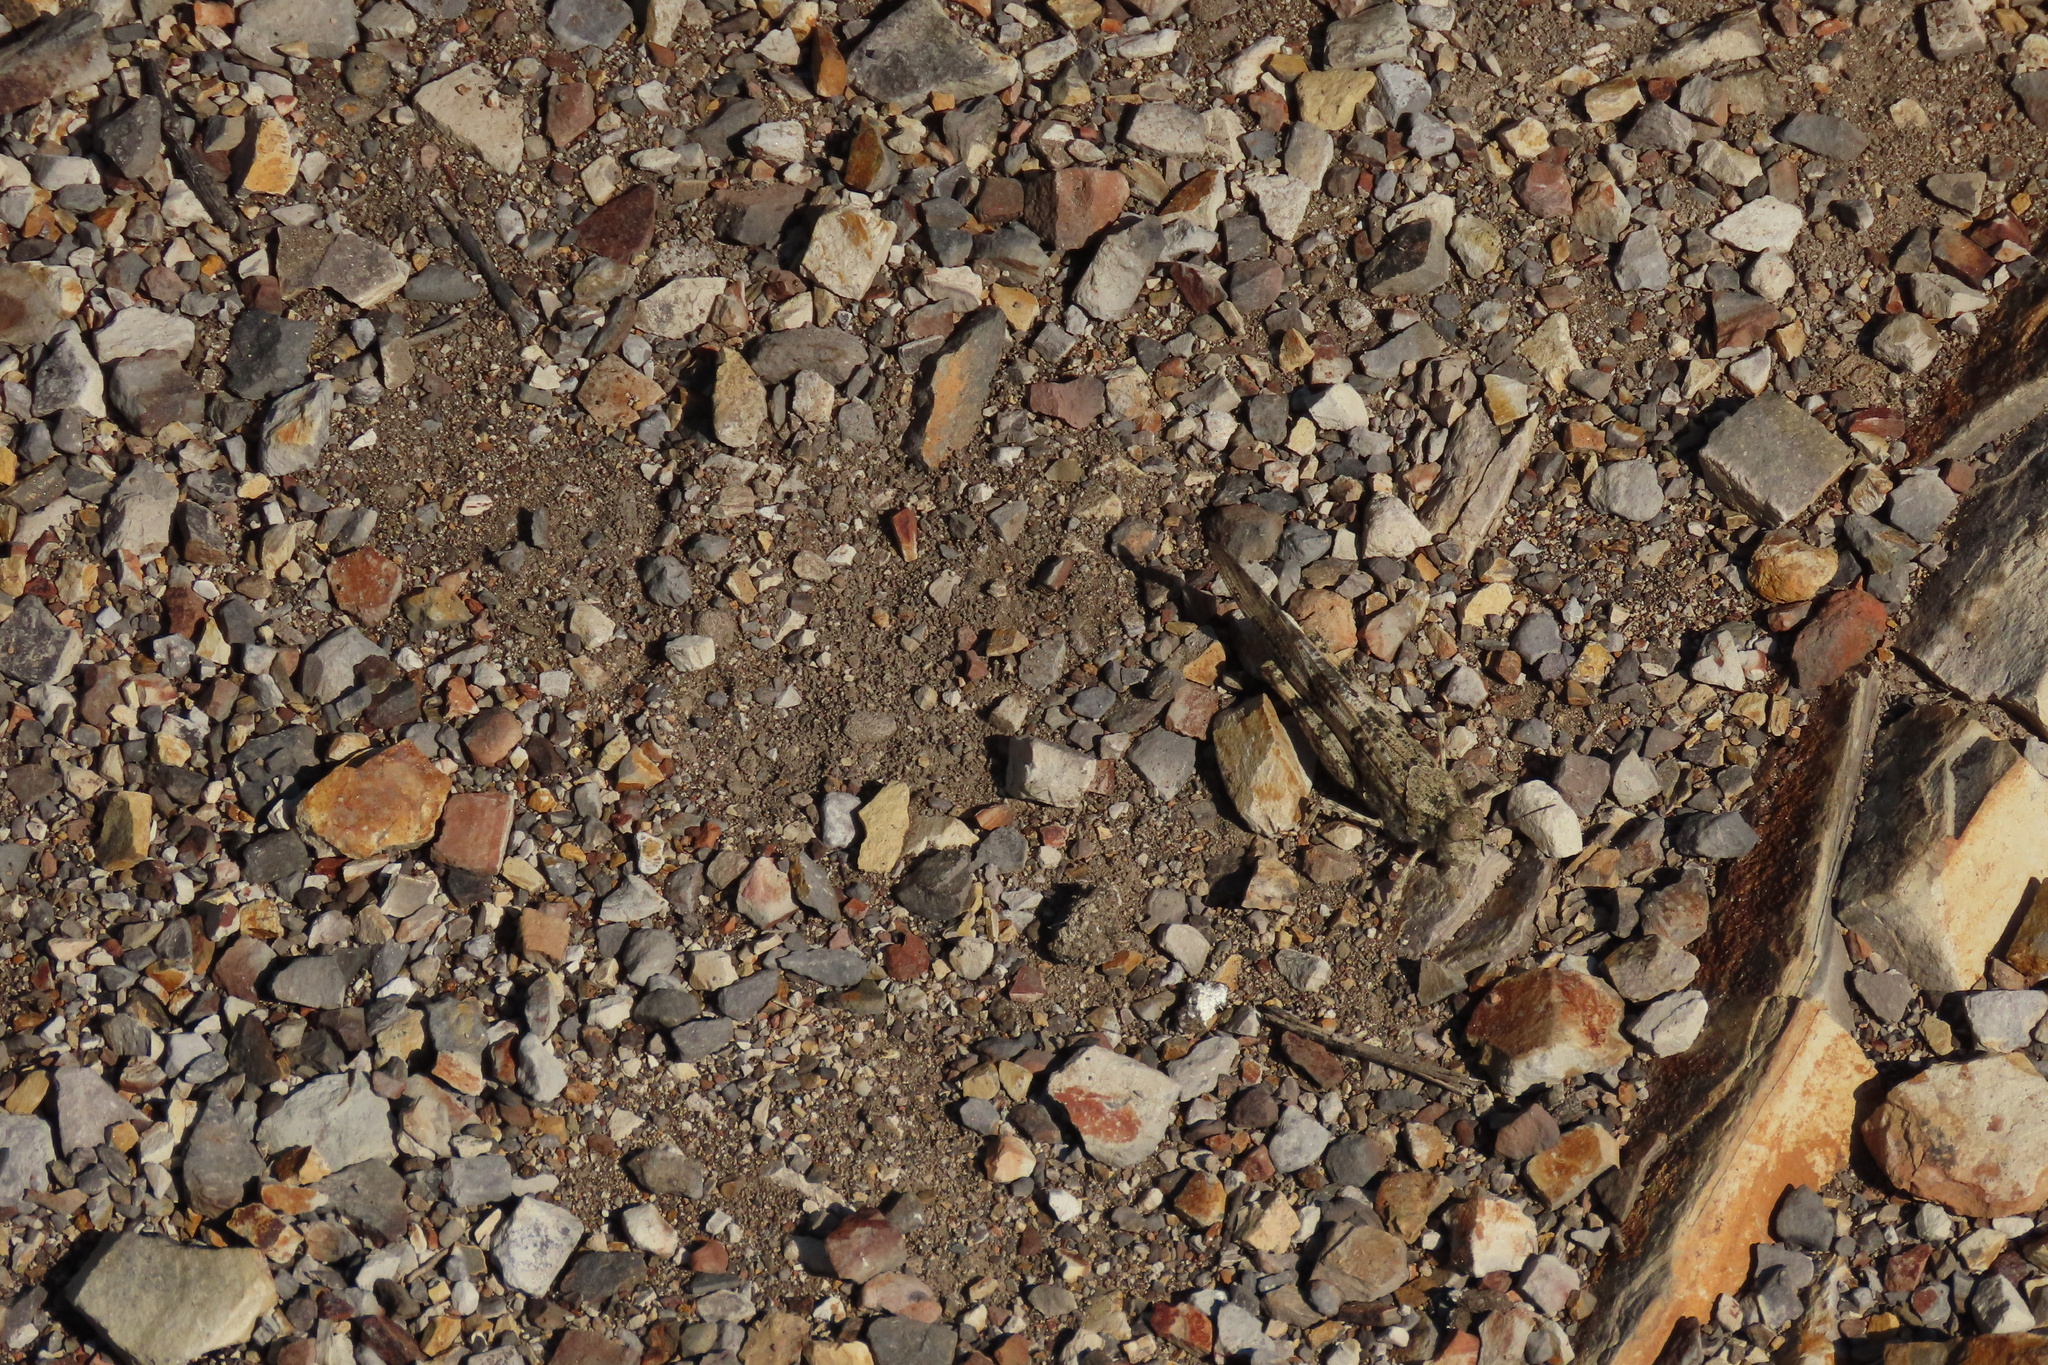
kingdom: Animalia
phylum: Arthropoda
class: Insecta
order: Orthoptera
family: Acrididae
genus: Trimerotropis
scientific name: Trimerotropis pallidipennis
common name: Pallid-winged grasshopper
